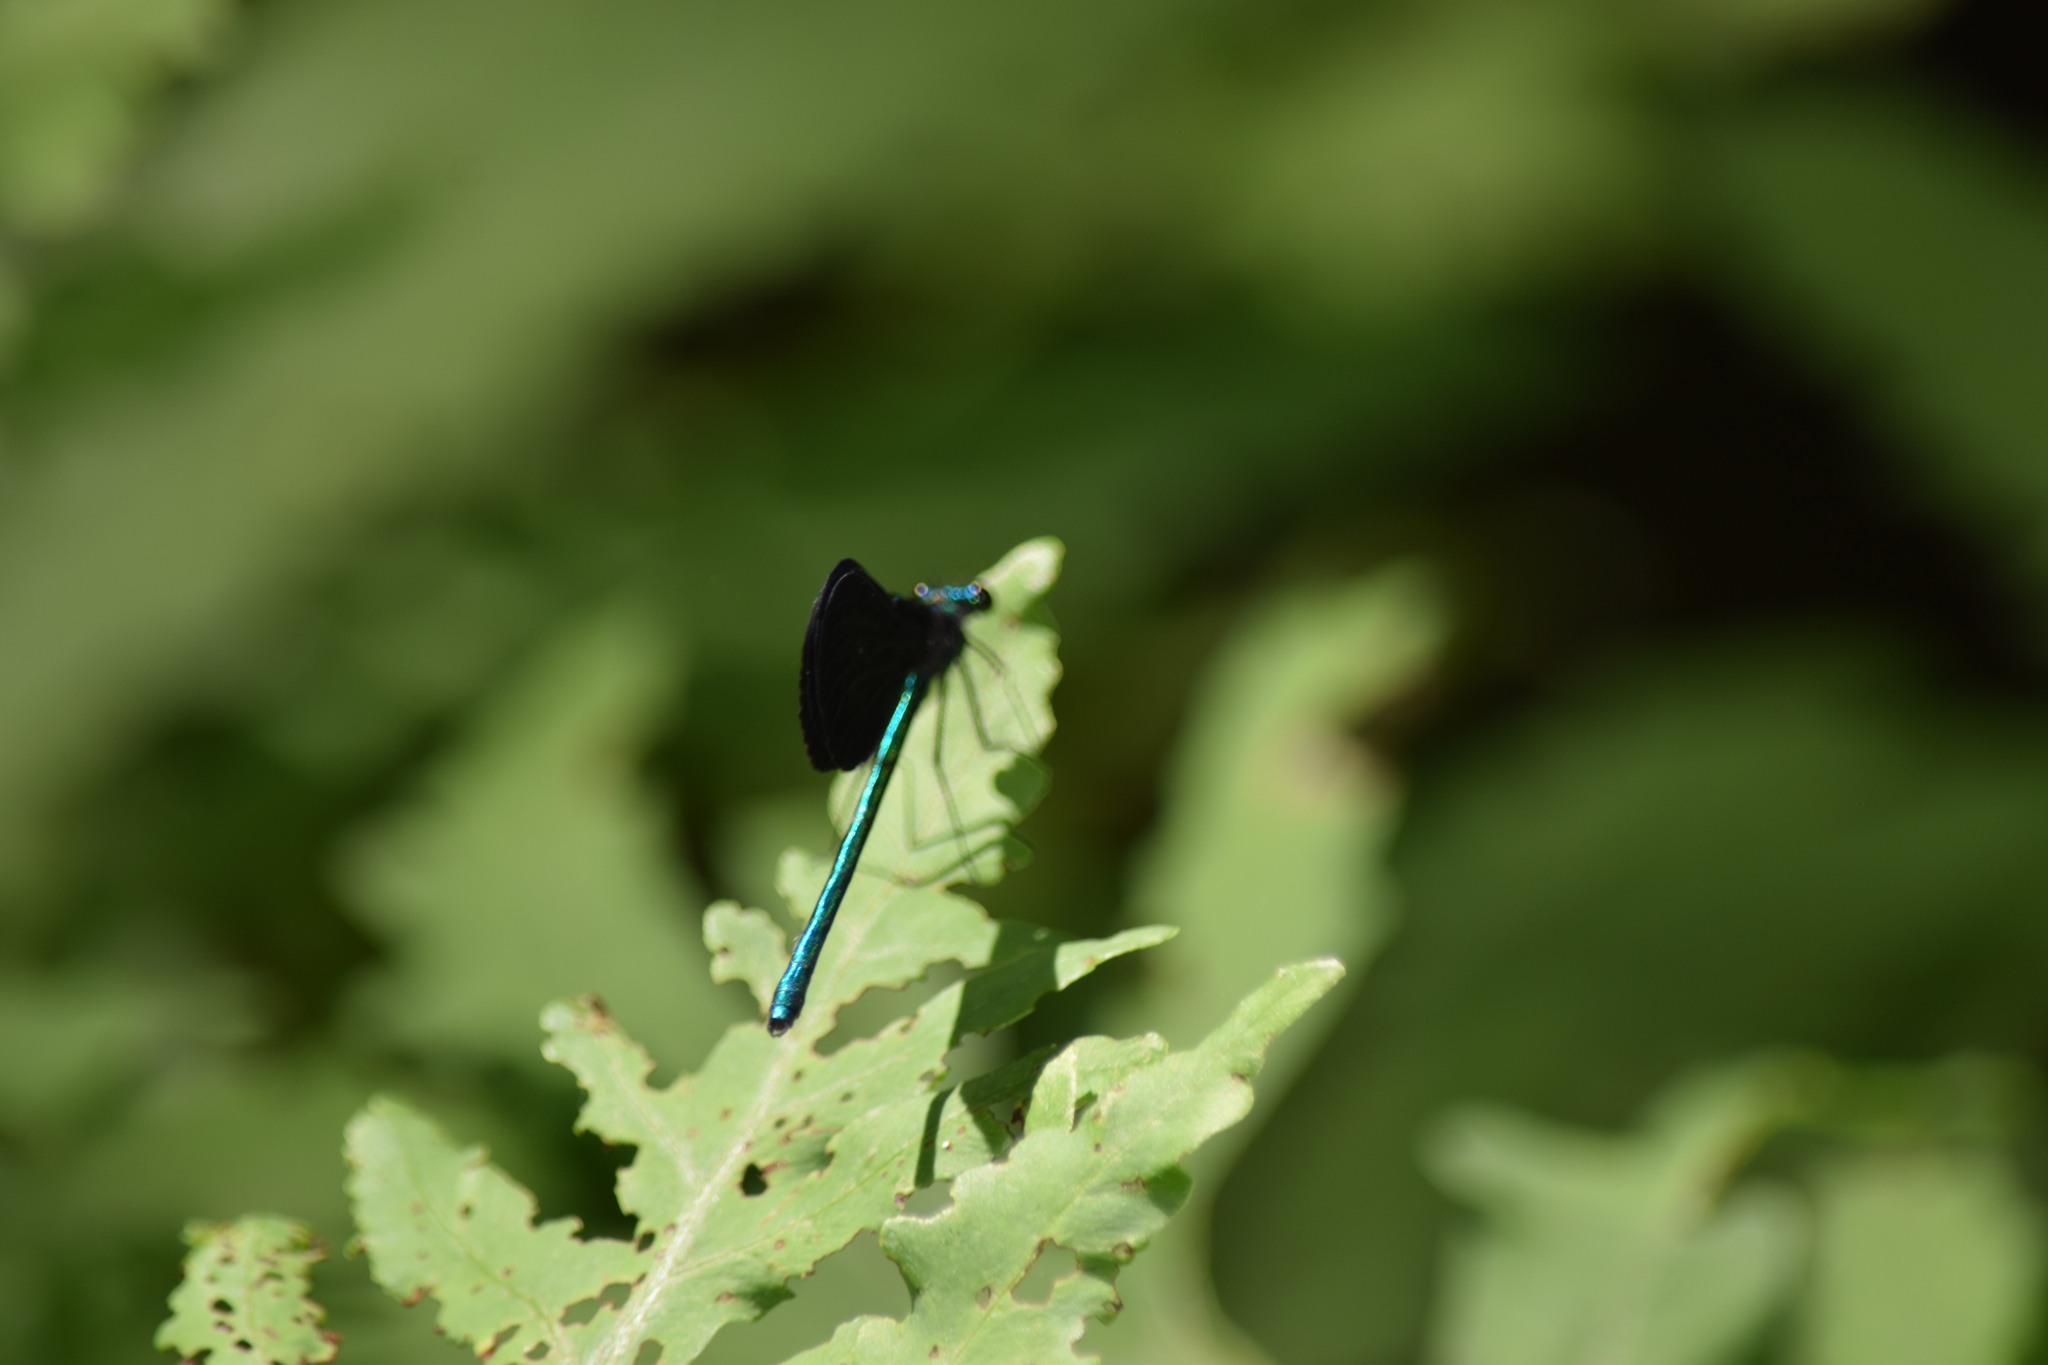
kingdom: Animalia
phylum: Arthropoda
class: Insecta
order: Odonata
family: Calopterygidae
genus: Calopteryx
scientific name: Calopteryx maculata
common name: Ebony jewelwing
